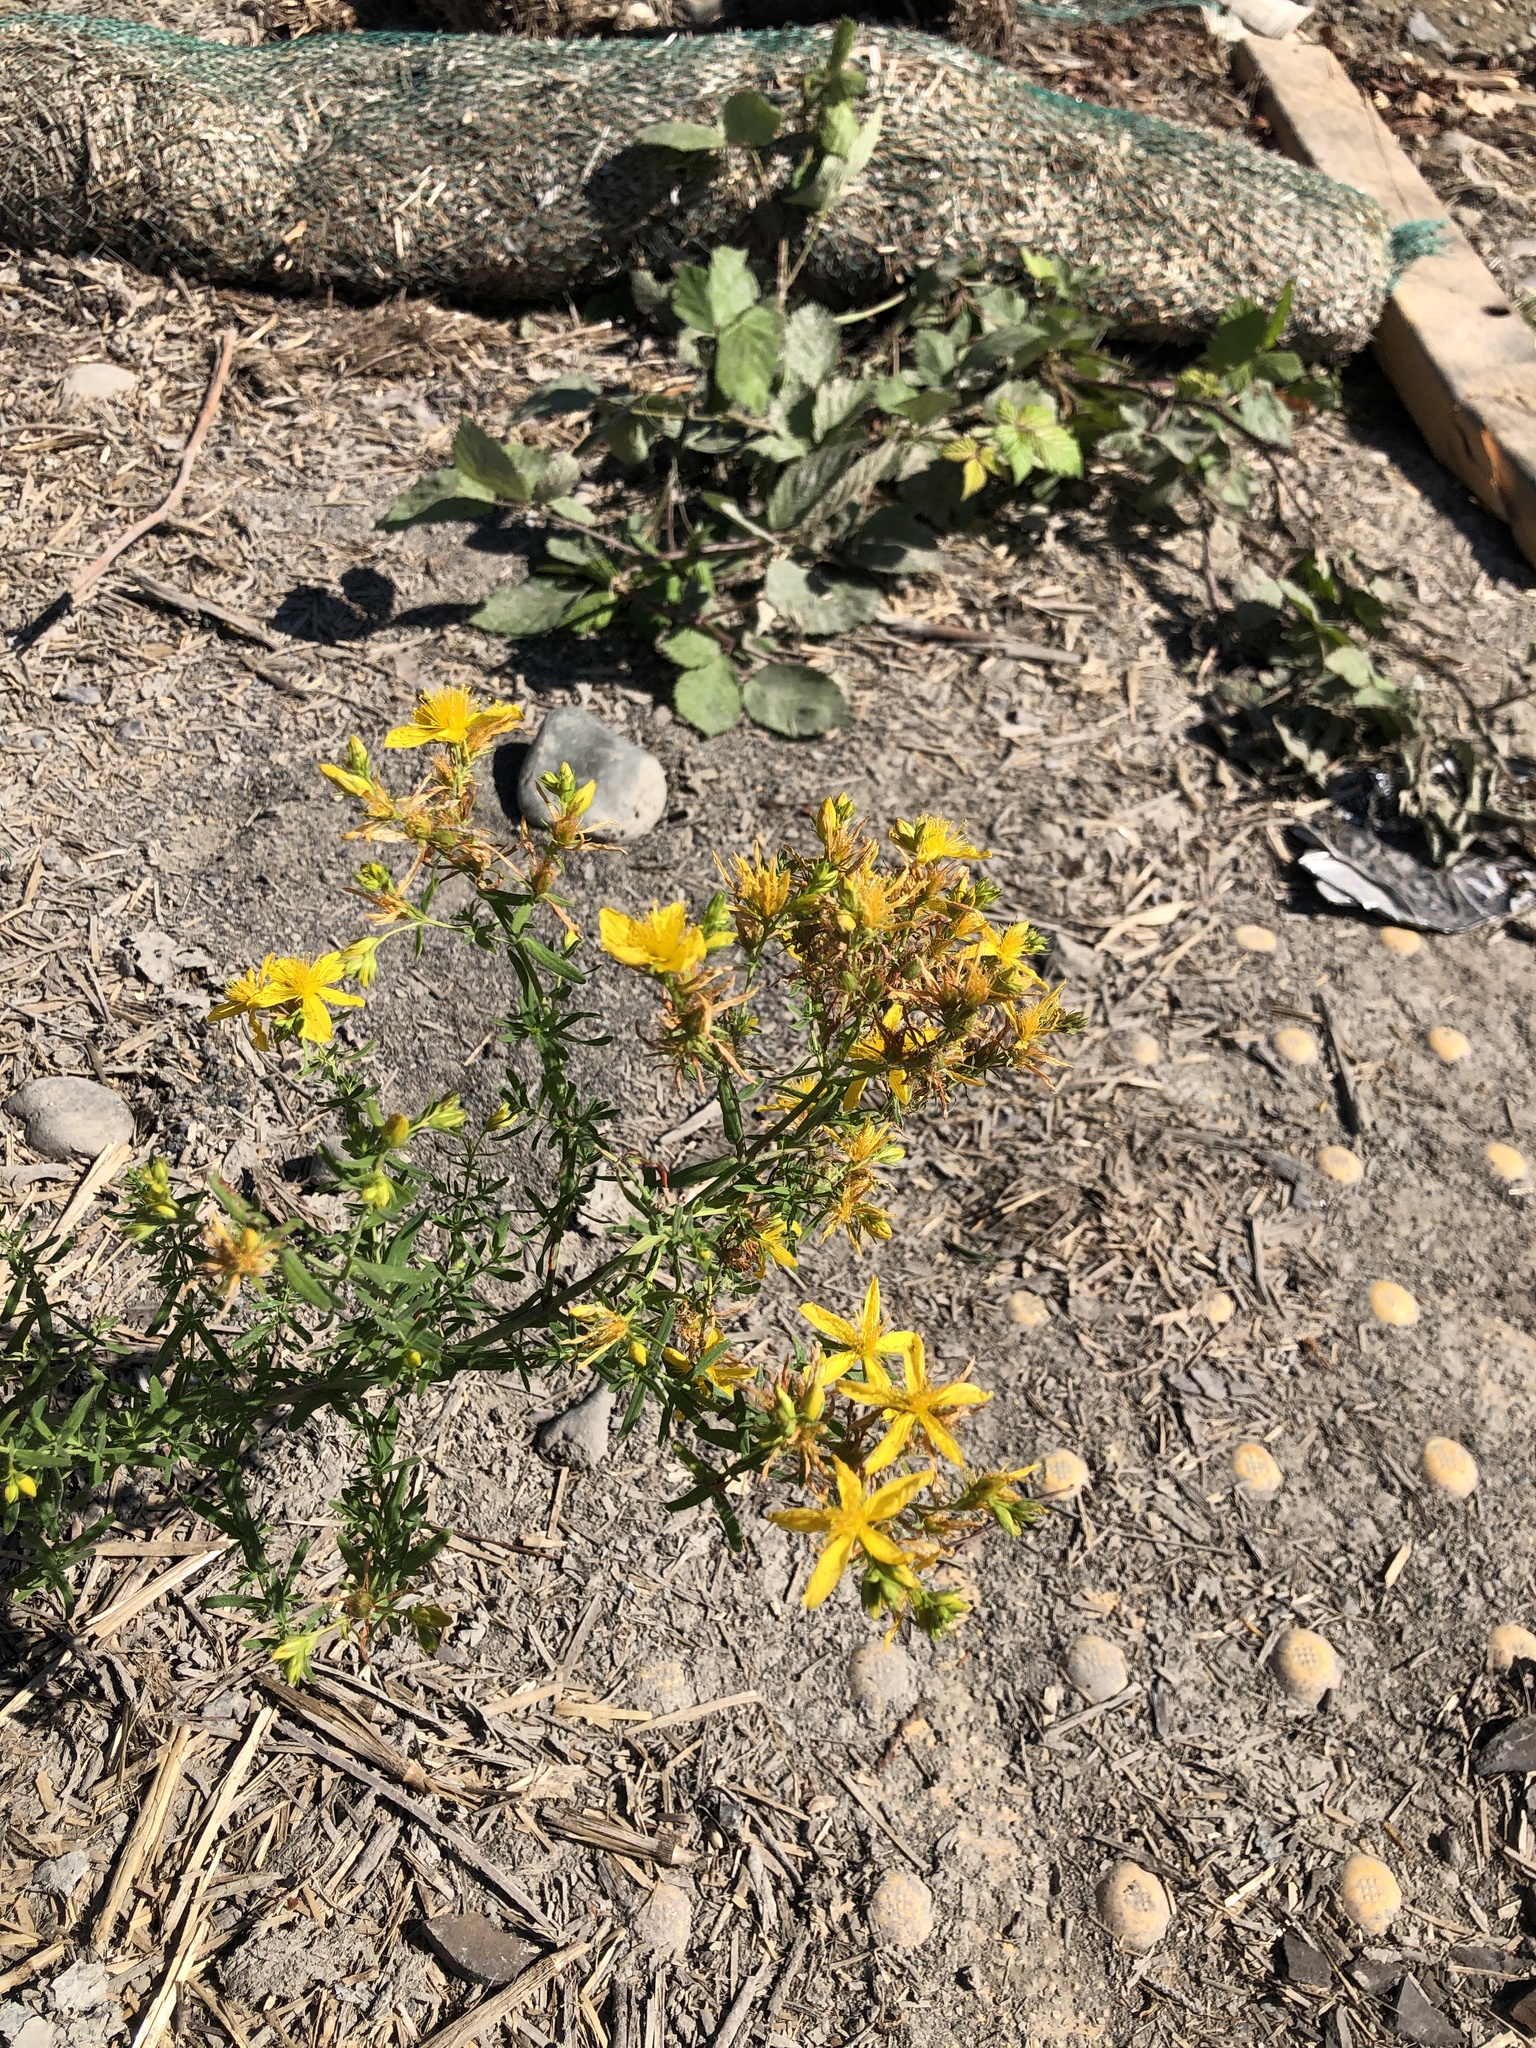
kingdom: Plantae
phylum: Tracheophyta
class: Magnoliopsida
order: Malpighiales
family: Hypericaceae
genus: Hypericum
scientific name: Hypericum perforatum
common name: Common st. johnswort
